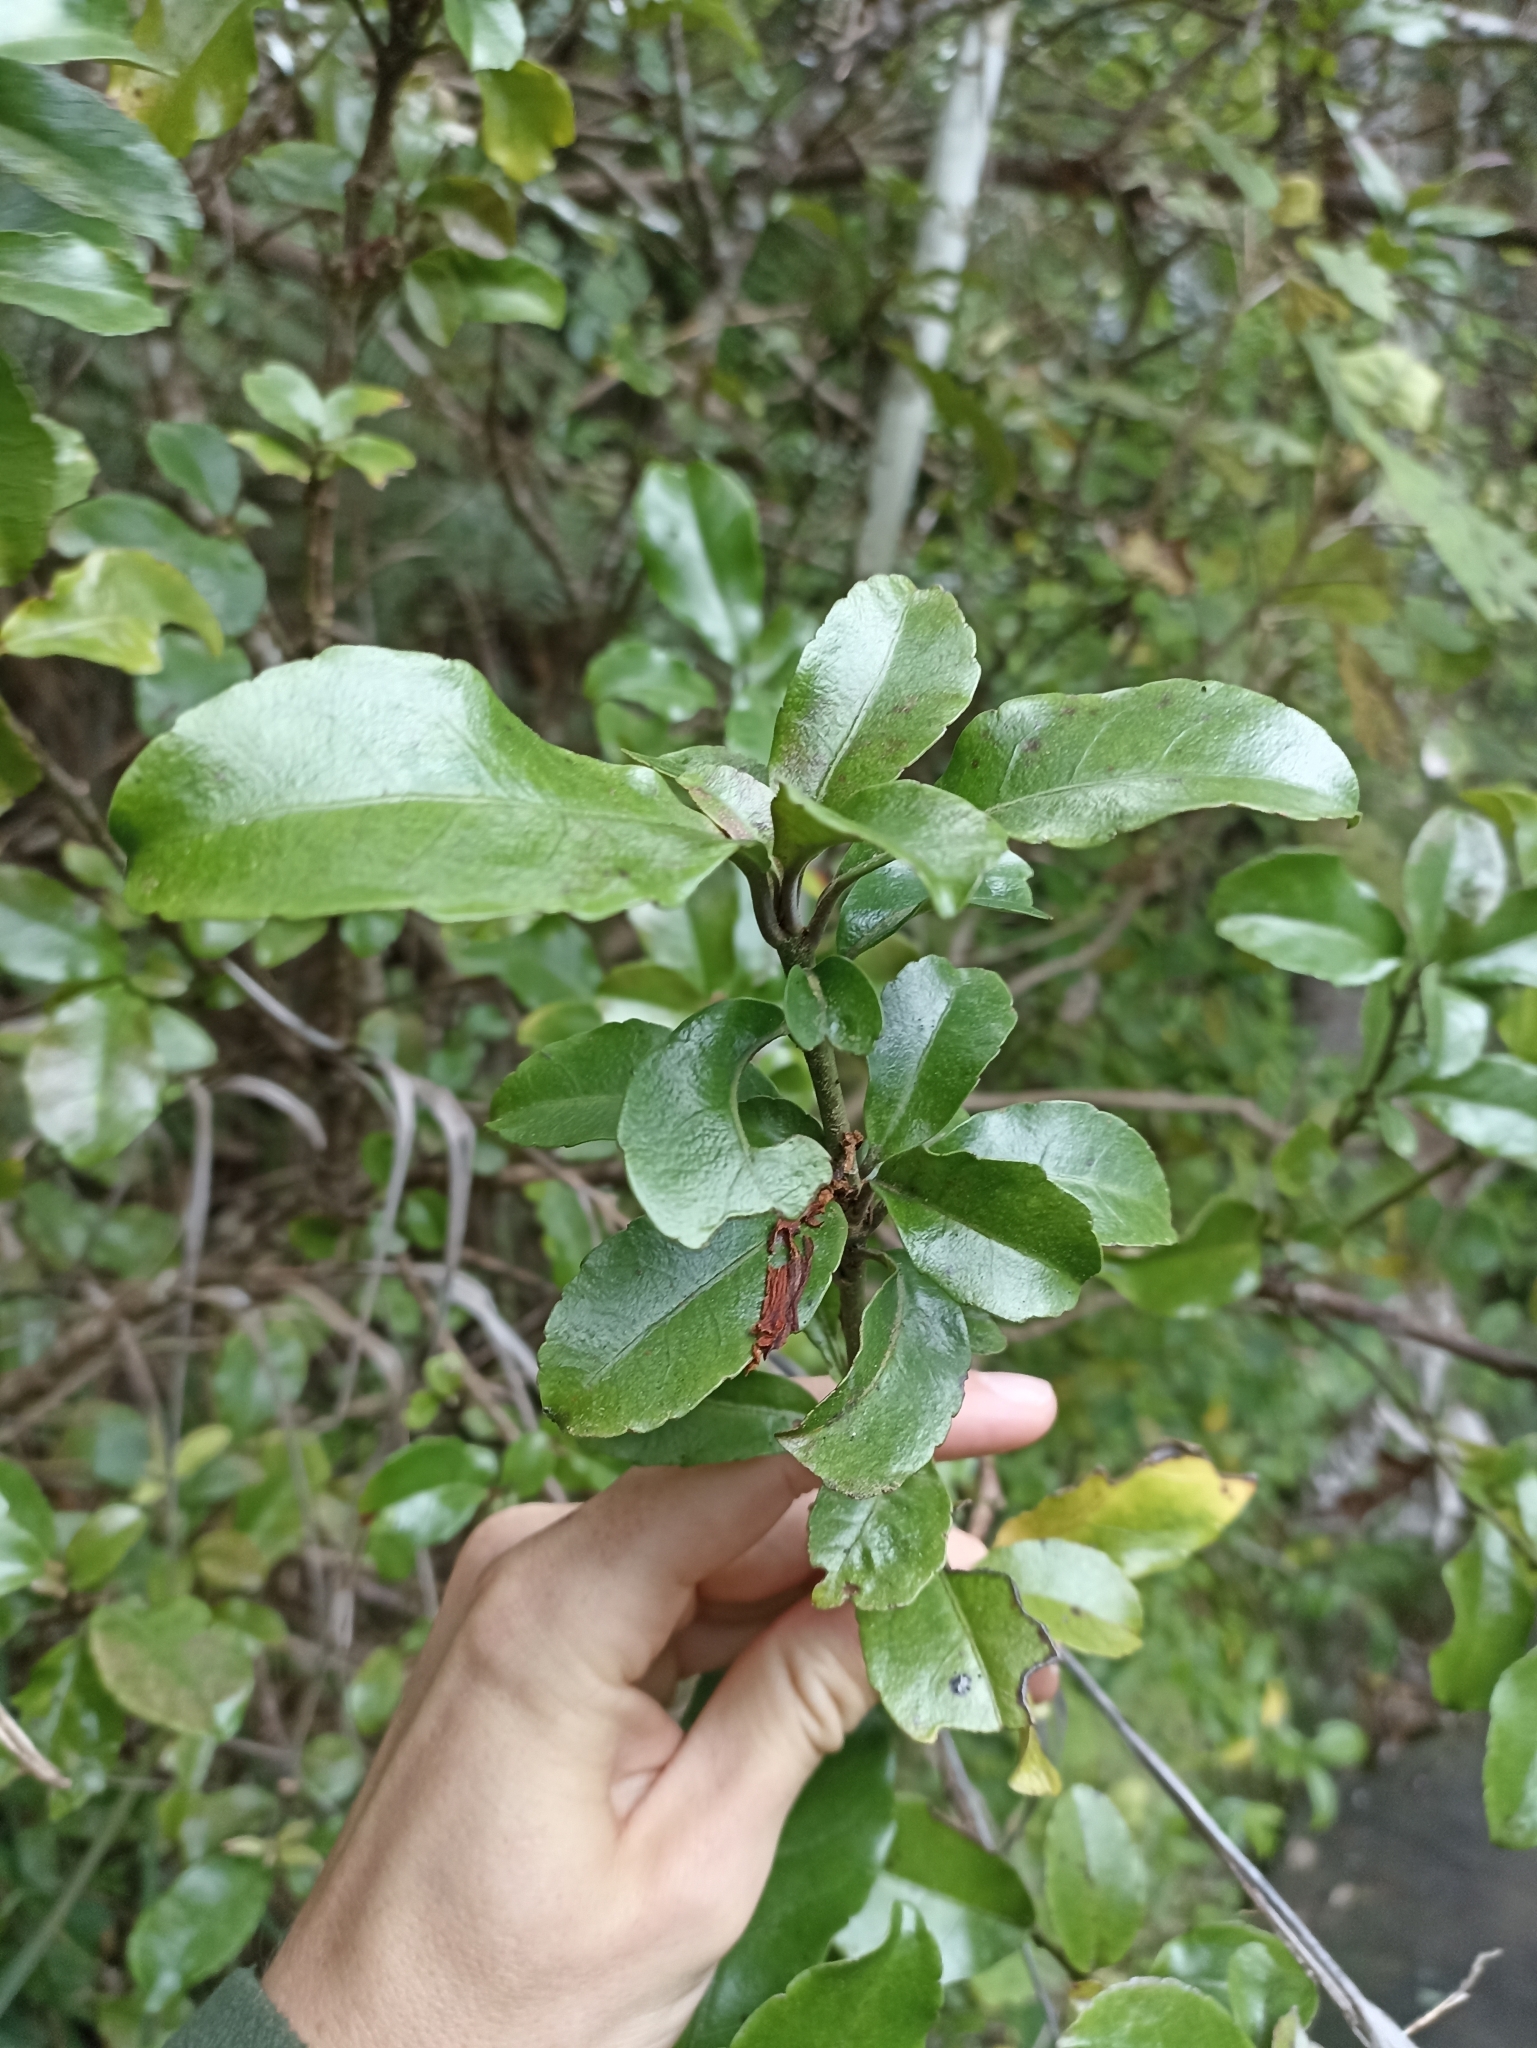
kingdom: Plantae
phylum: Tracheophyta
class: Magnoliopsida
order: Asterales
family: Alseuosmiaceae
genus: Alseuosmia
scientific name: Alseuosmia macrophylla
